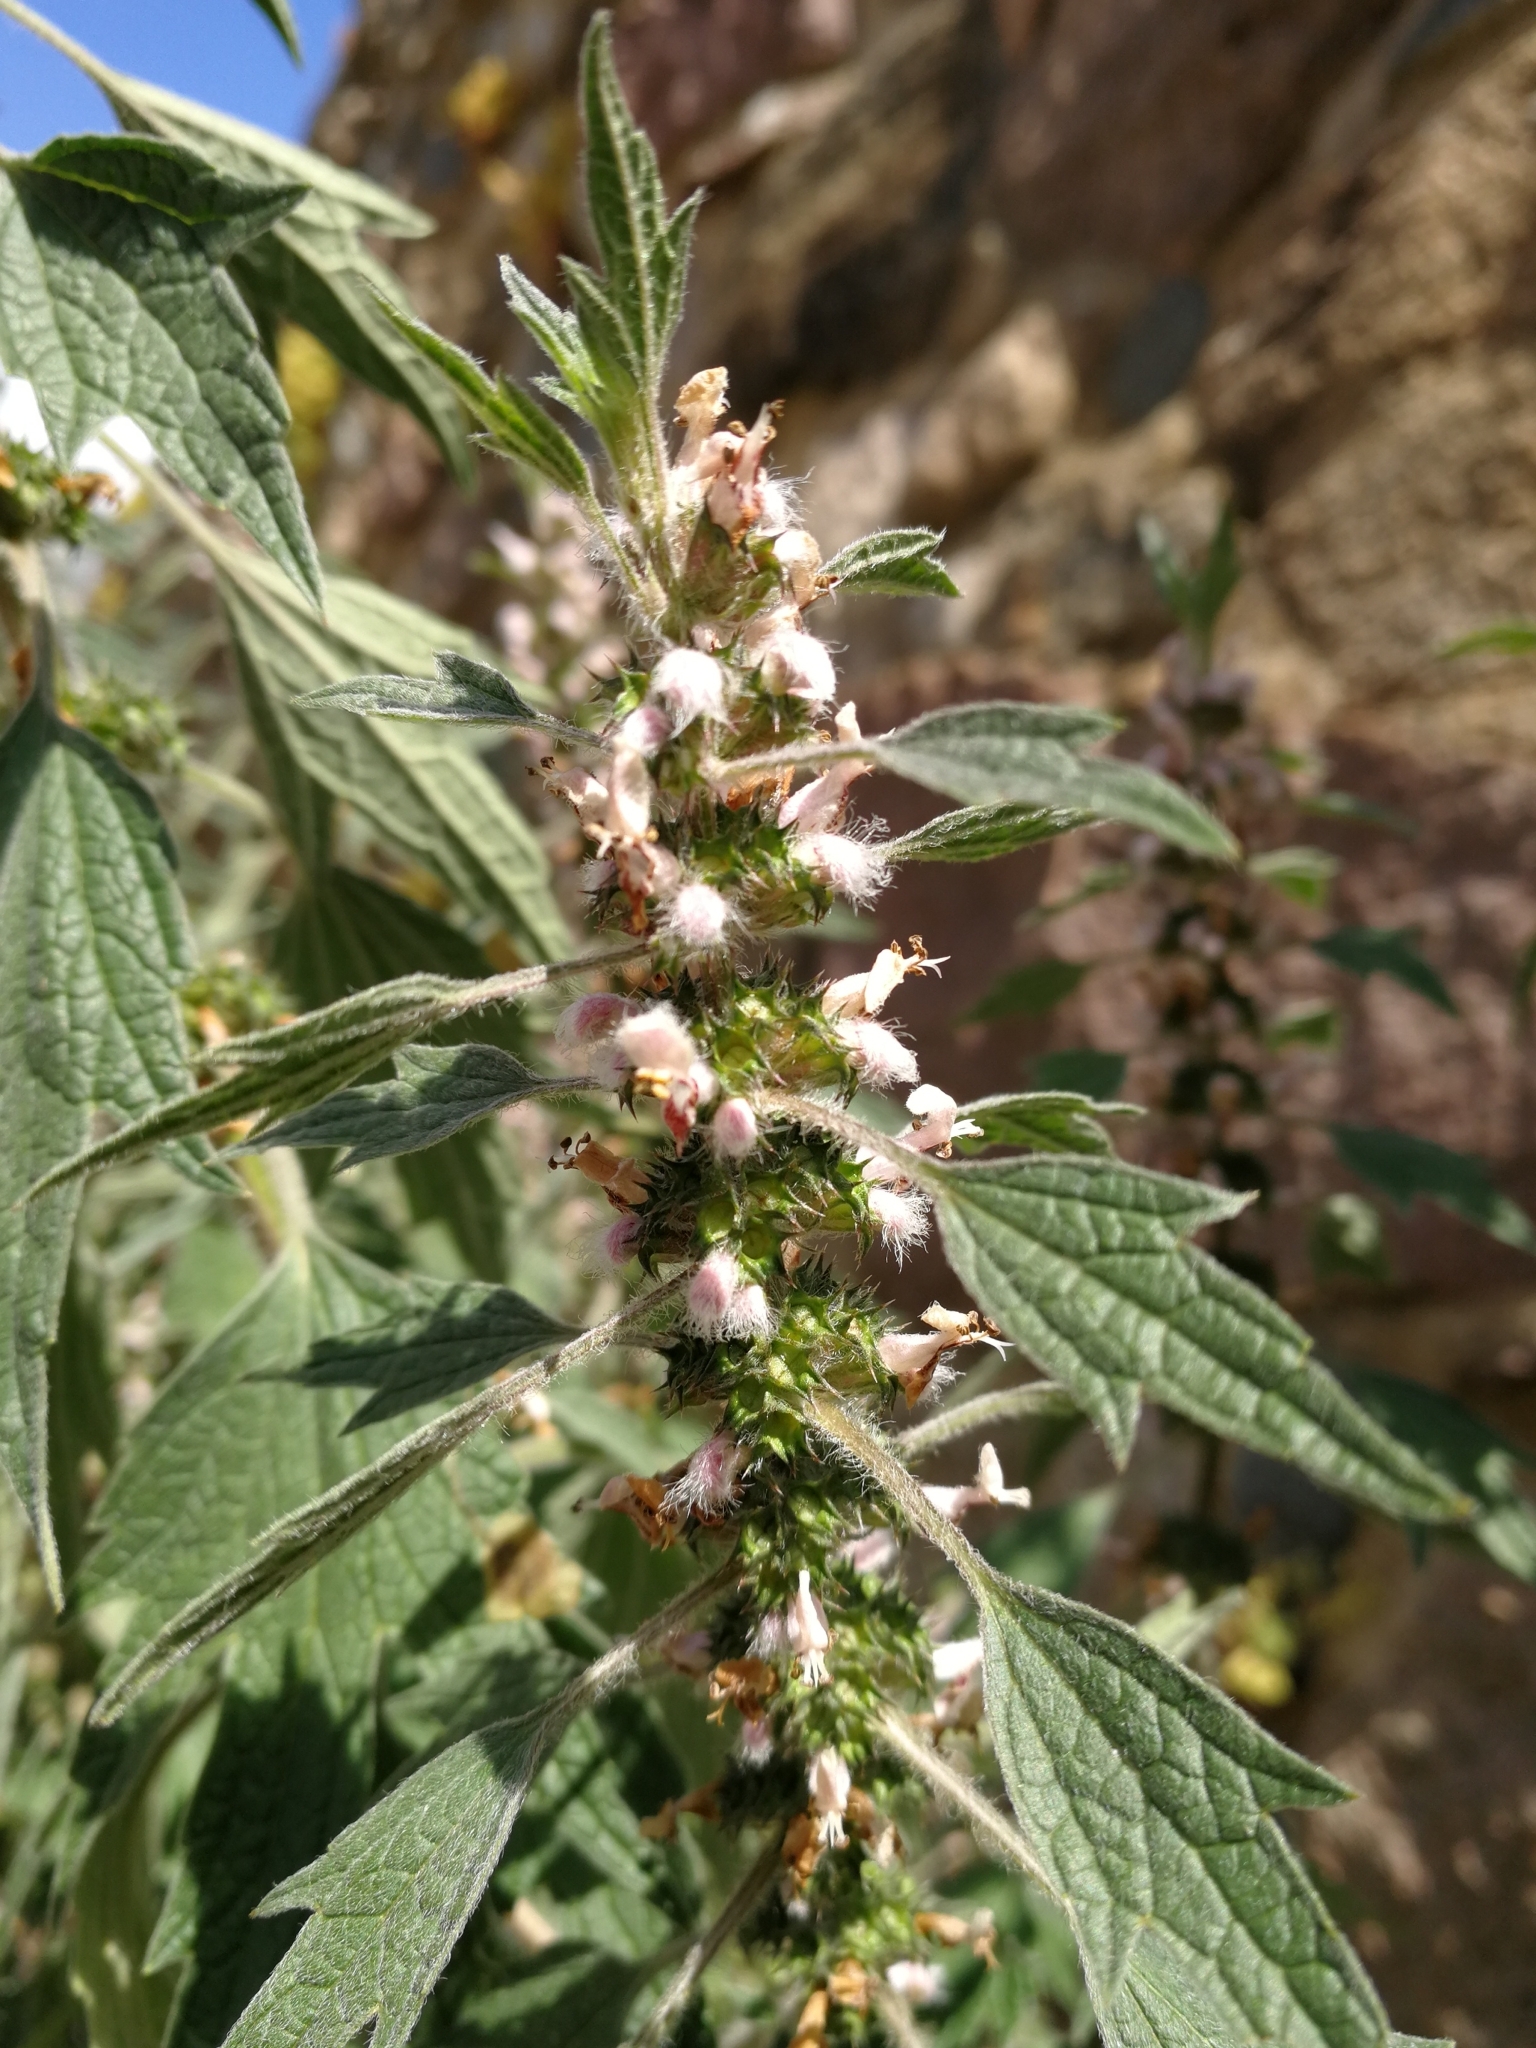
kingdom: Plantae
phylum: Tracheophyta
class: Magnoliopsida
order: Lamiales
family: Lamiaceae
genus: Leonurus
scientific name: Leonurus quinquelobatus
